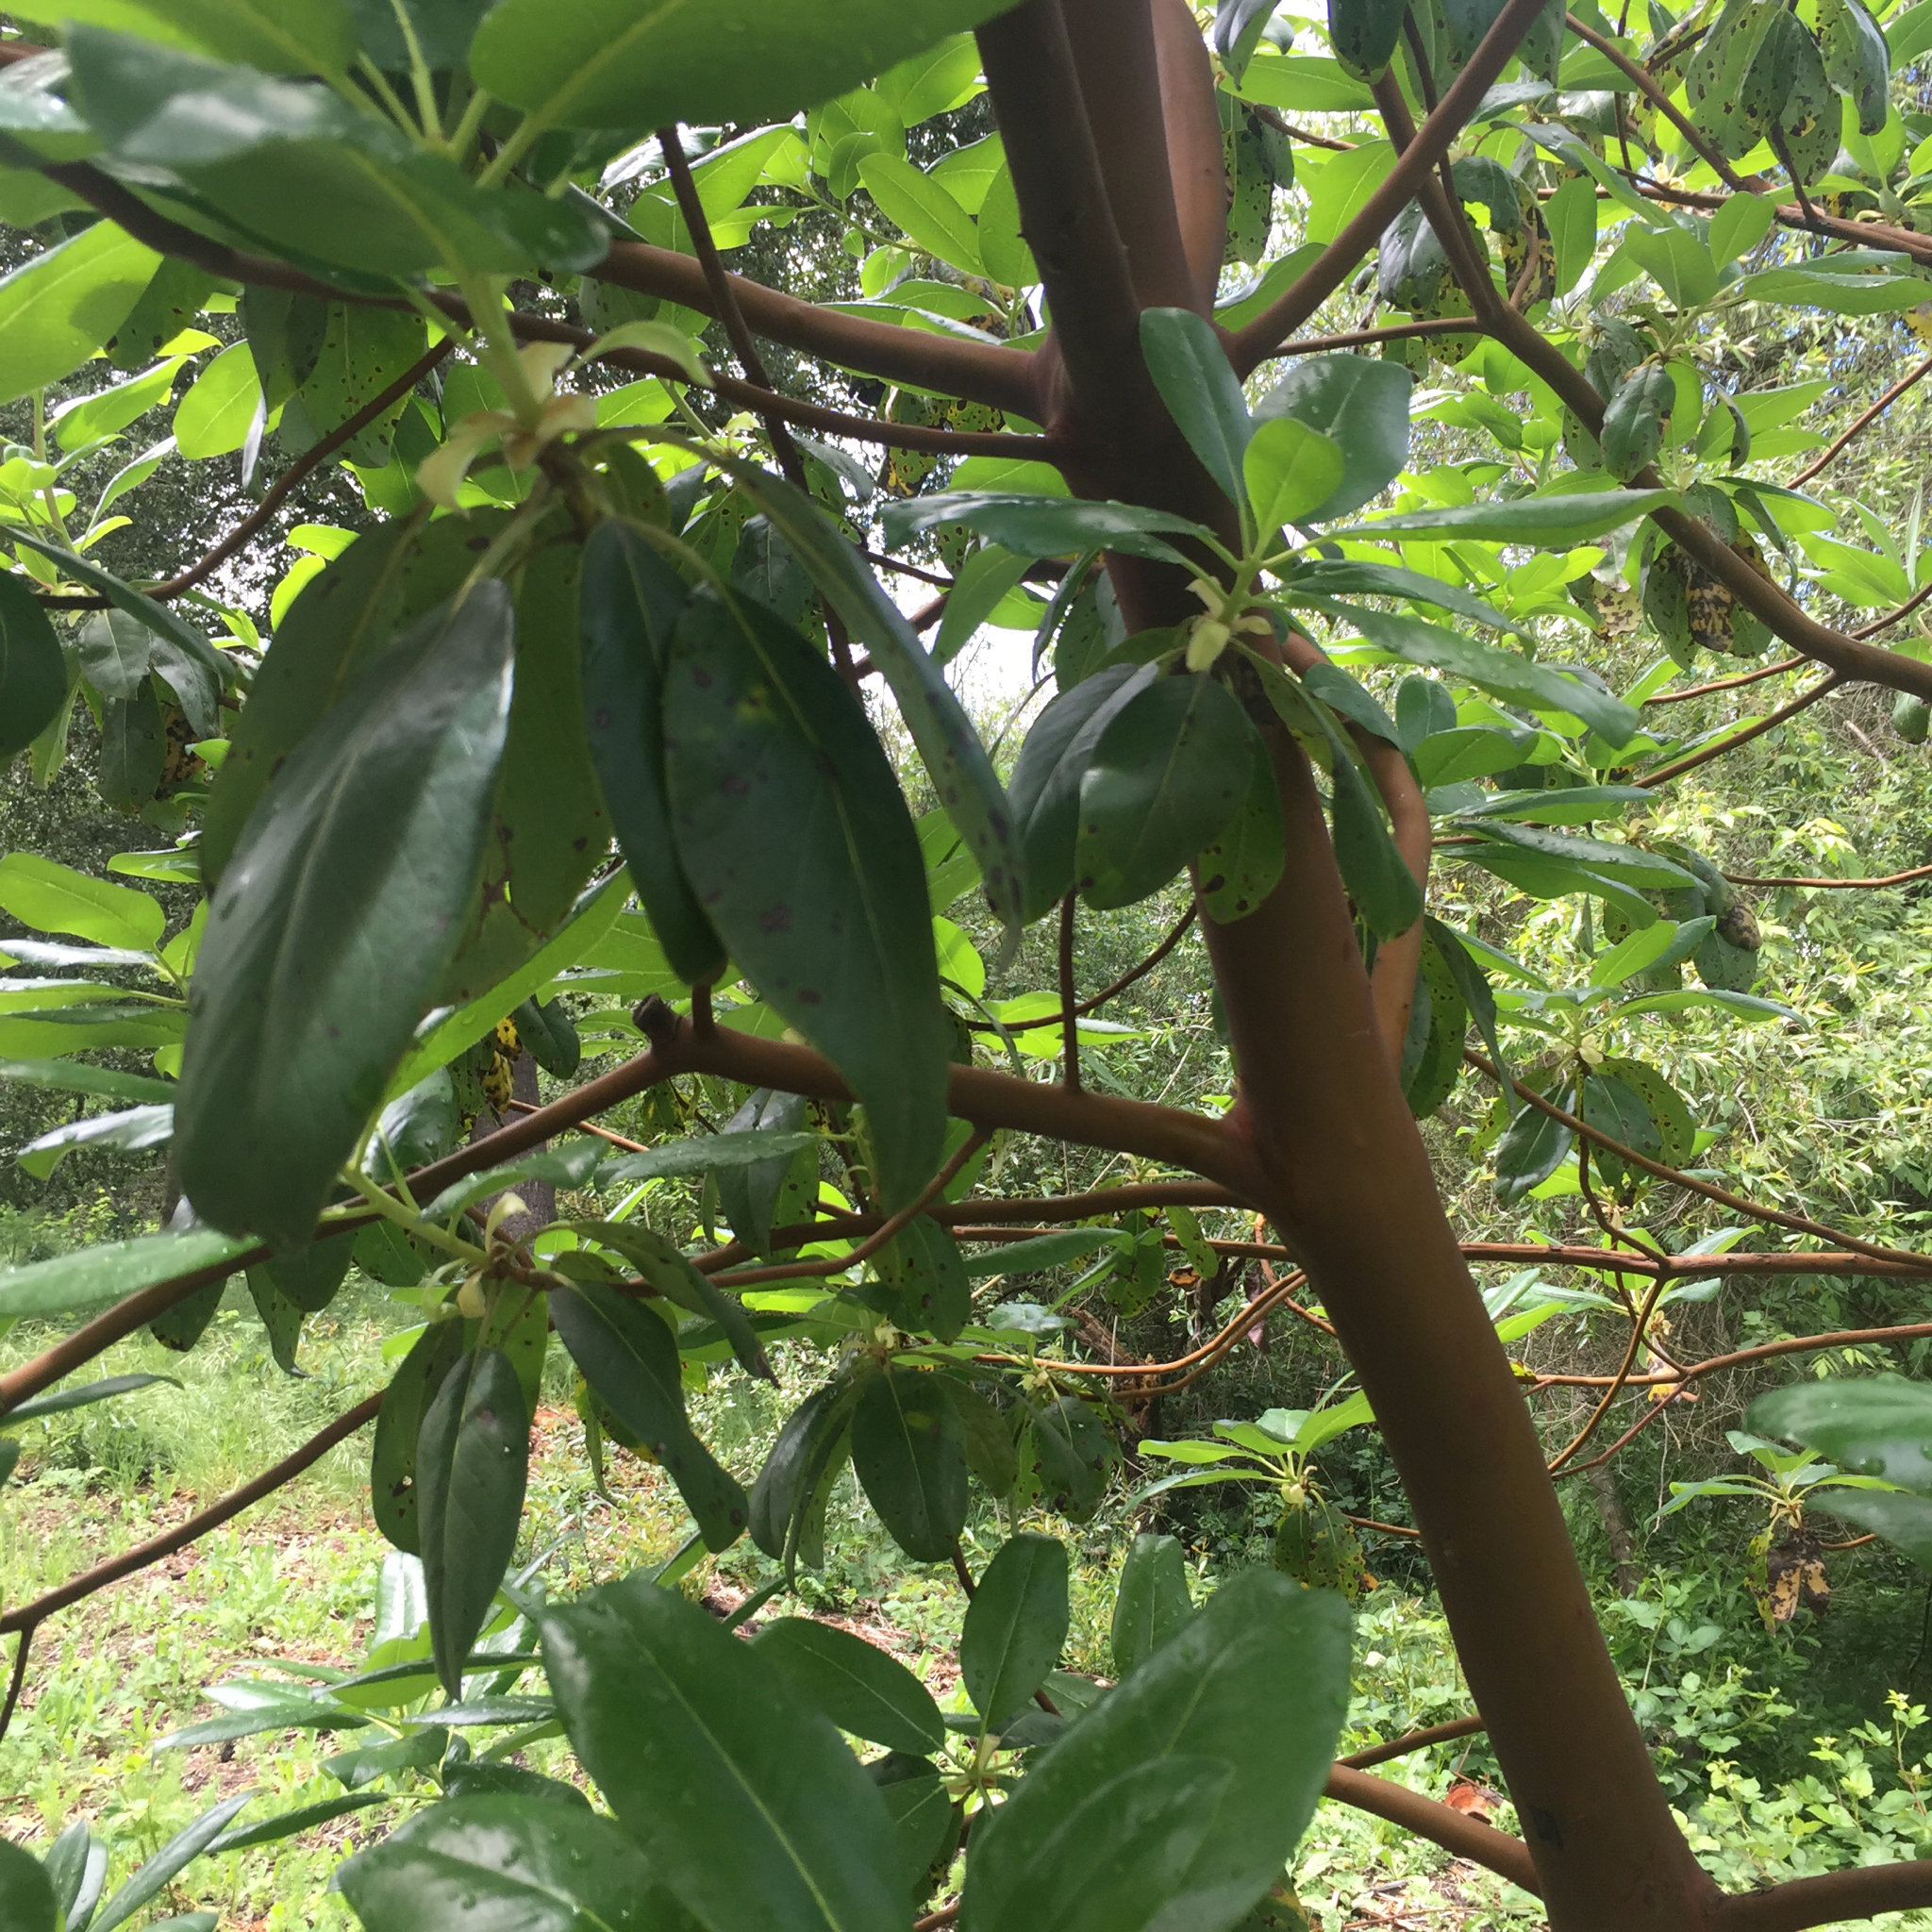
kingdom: Plantae
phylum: Tracheophyta
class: Magnoliopsida
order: Ericales
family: Ericaceae
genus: Arbutus
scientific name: Arbutus menziesii
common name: Pacific madrone
